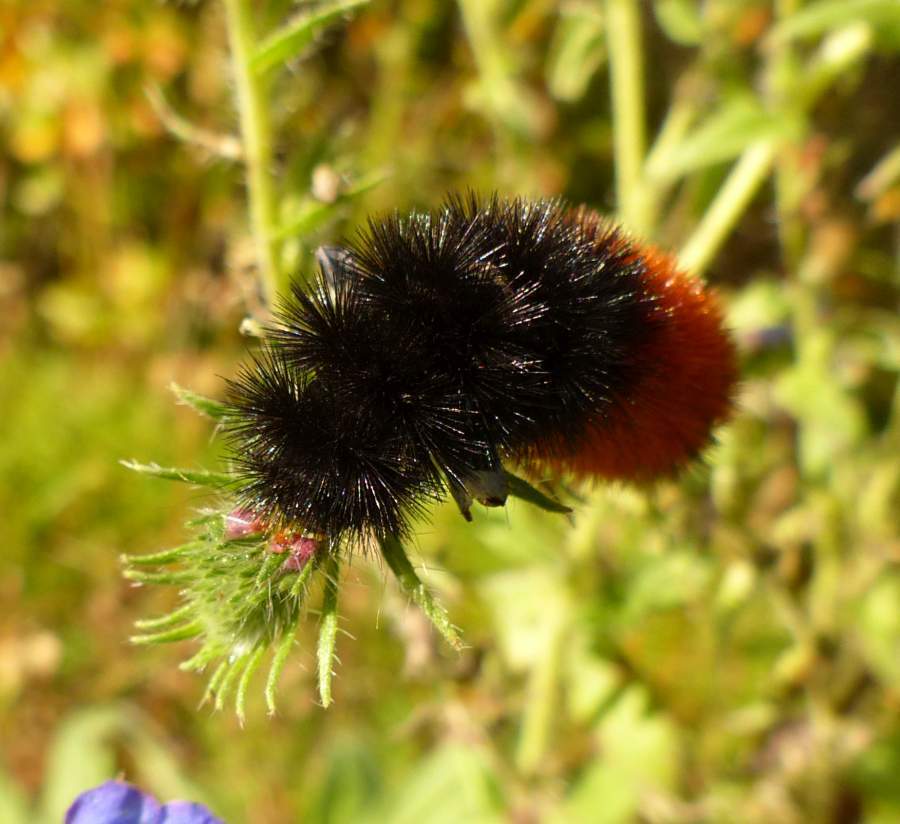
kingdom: Animalia
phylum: Arthropoda
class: Insecta
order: Lepidoptera
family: Erebidae
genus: Pyrrharctia
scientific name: Pyrrharctia isabella
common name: Isabella tiger moth
